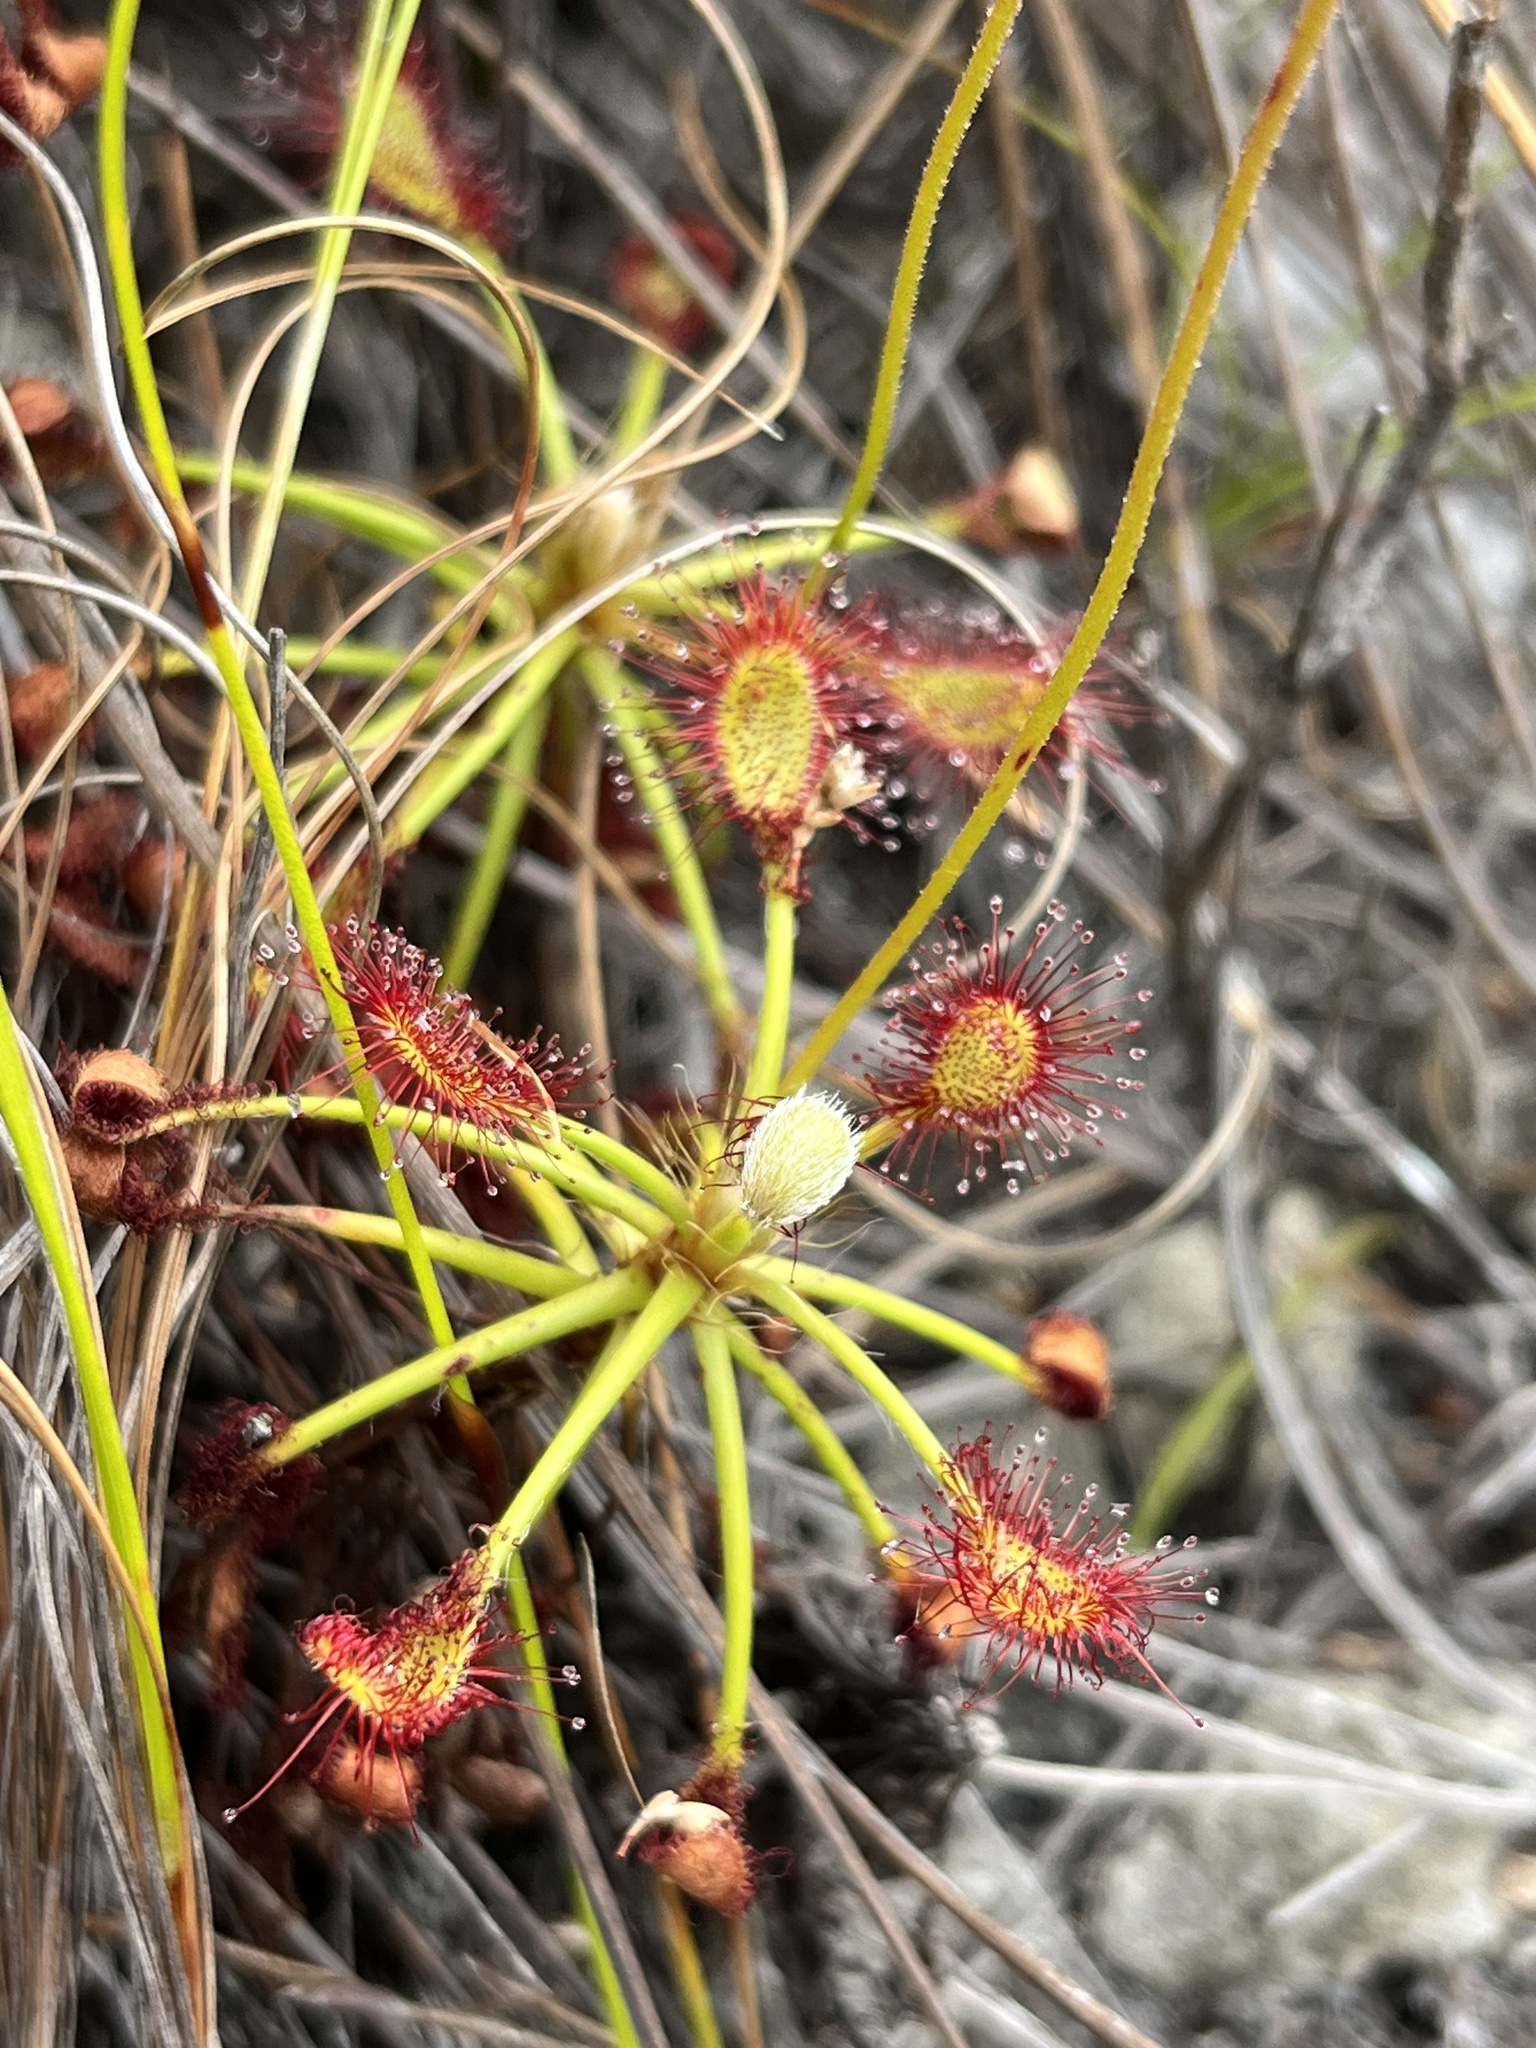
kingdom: Plantae
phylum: Tracheophyta
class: Magnoliopsida
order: Caryophyllales
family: Droseraceae
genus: Drosera
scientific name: Drosera glabripes
